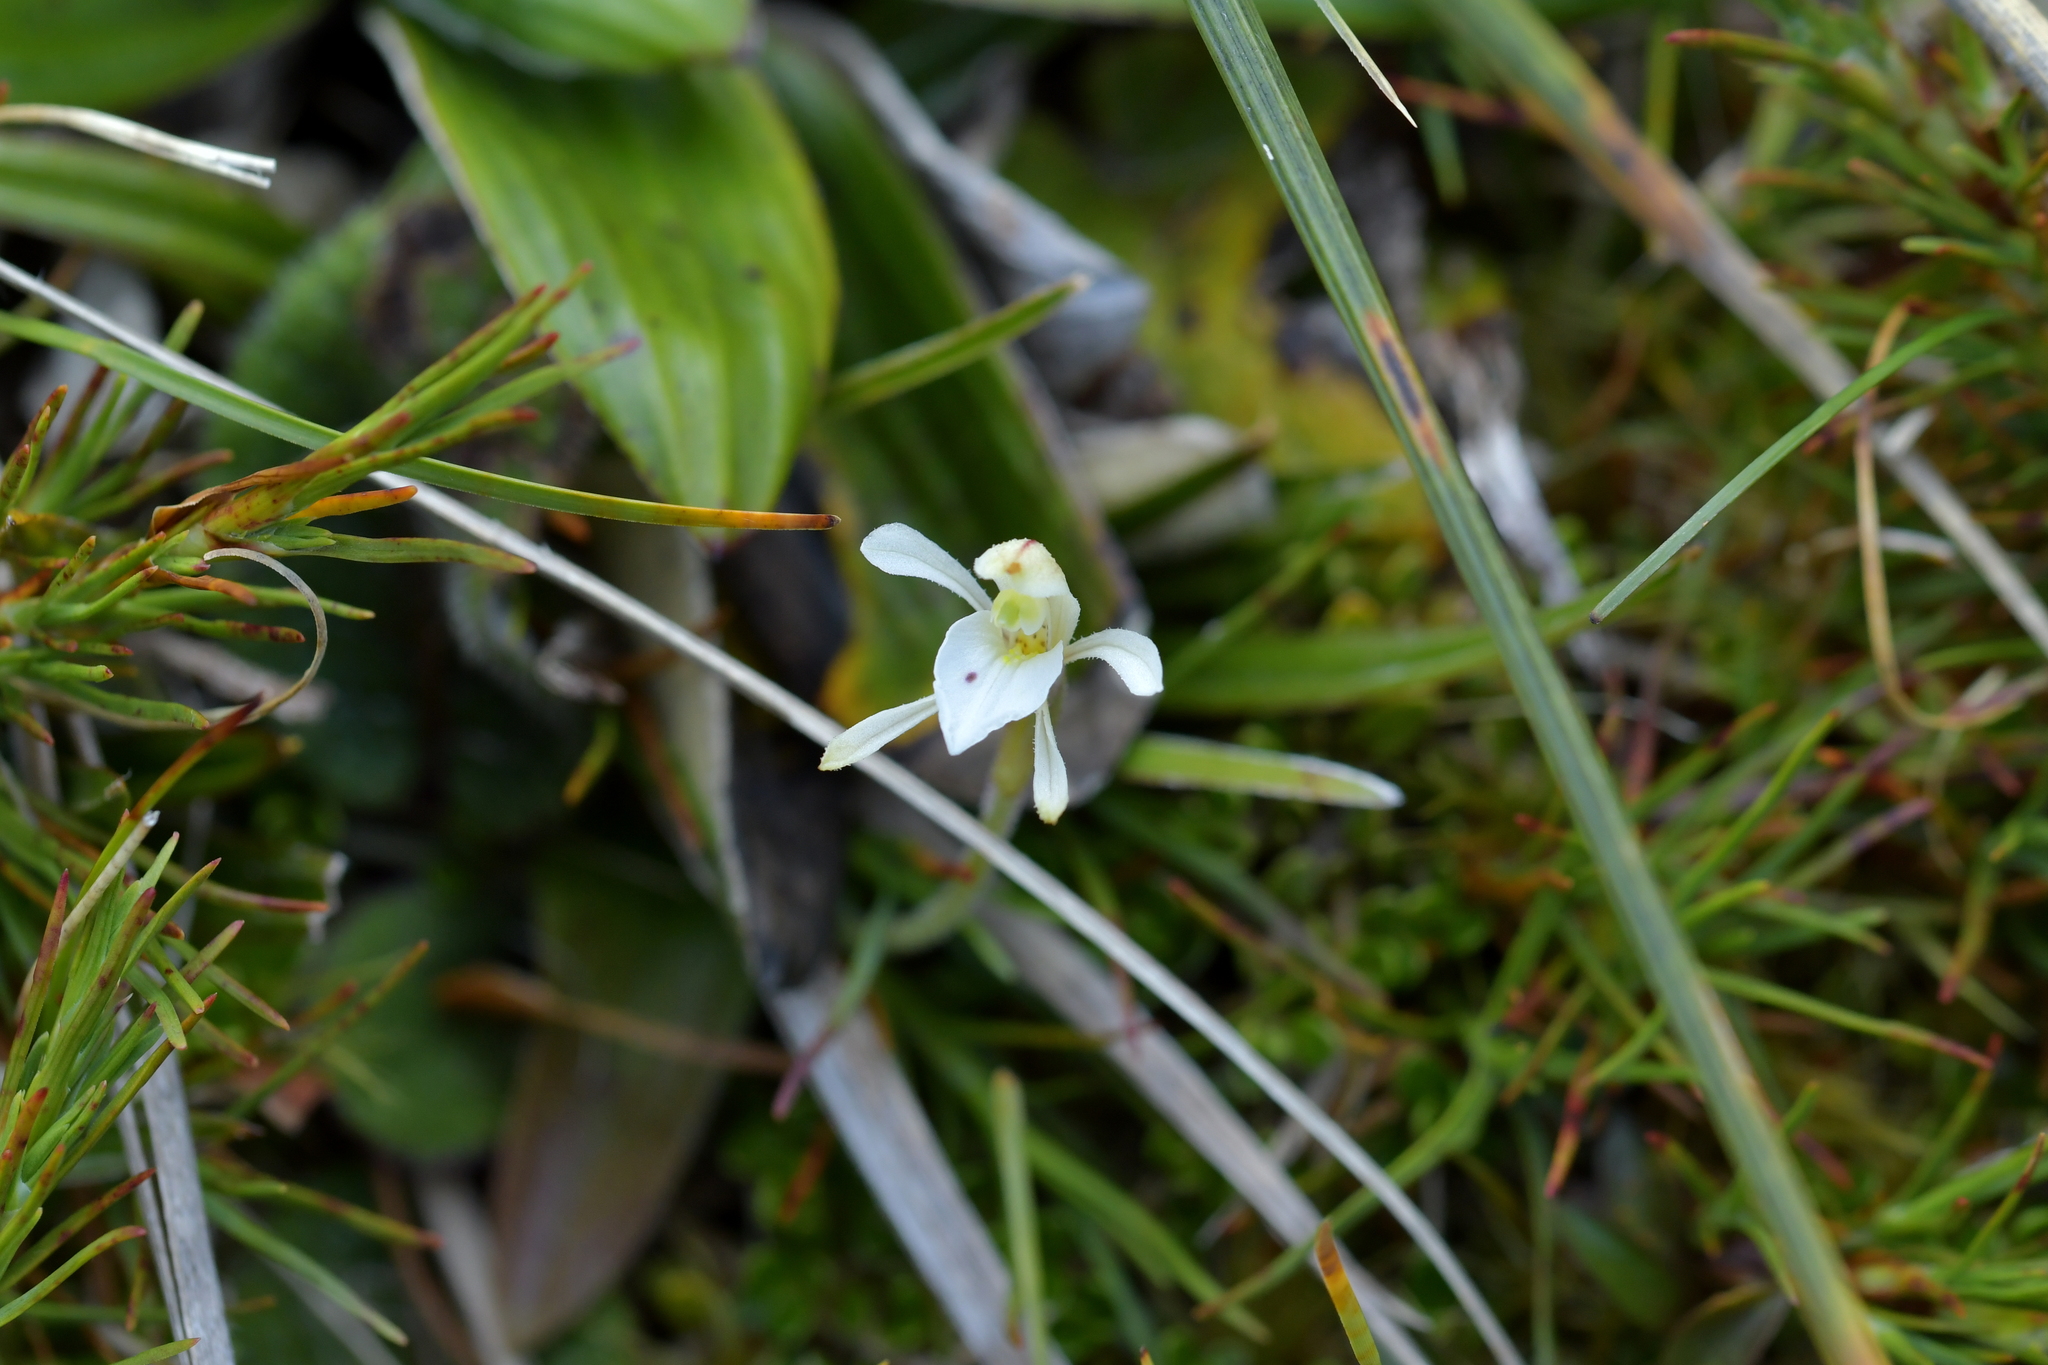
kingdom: Plantae
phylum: Tracheophyta
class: Liliopsida
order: Asparagales
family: Orchidaceae
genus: Aporostylis
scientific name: Aporostylis bifolia
